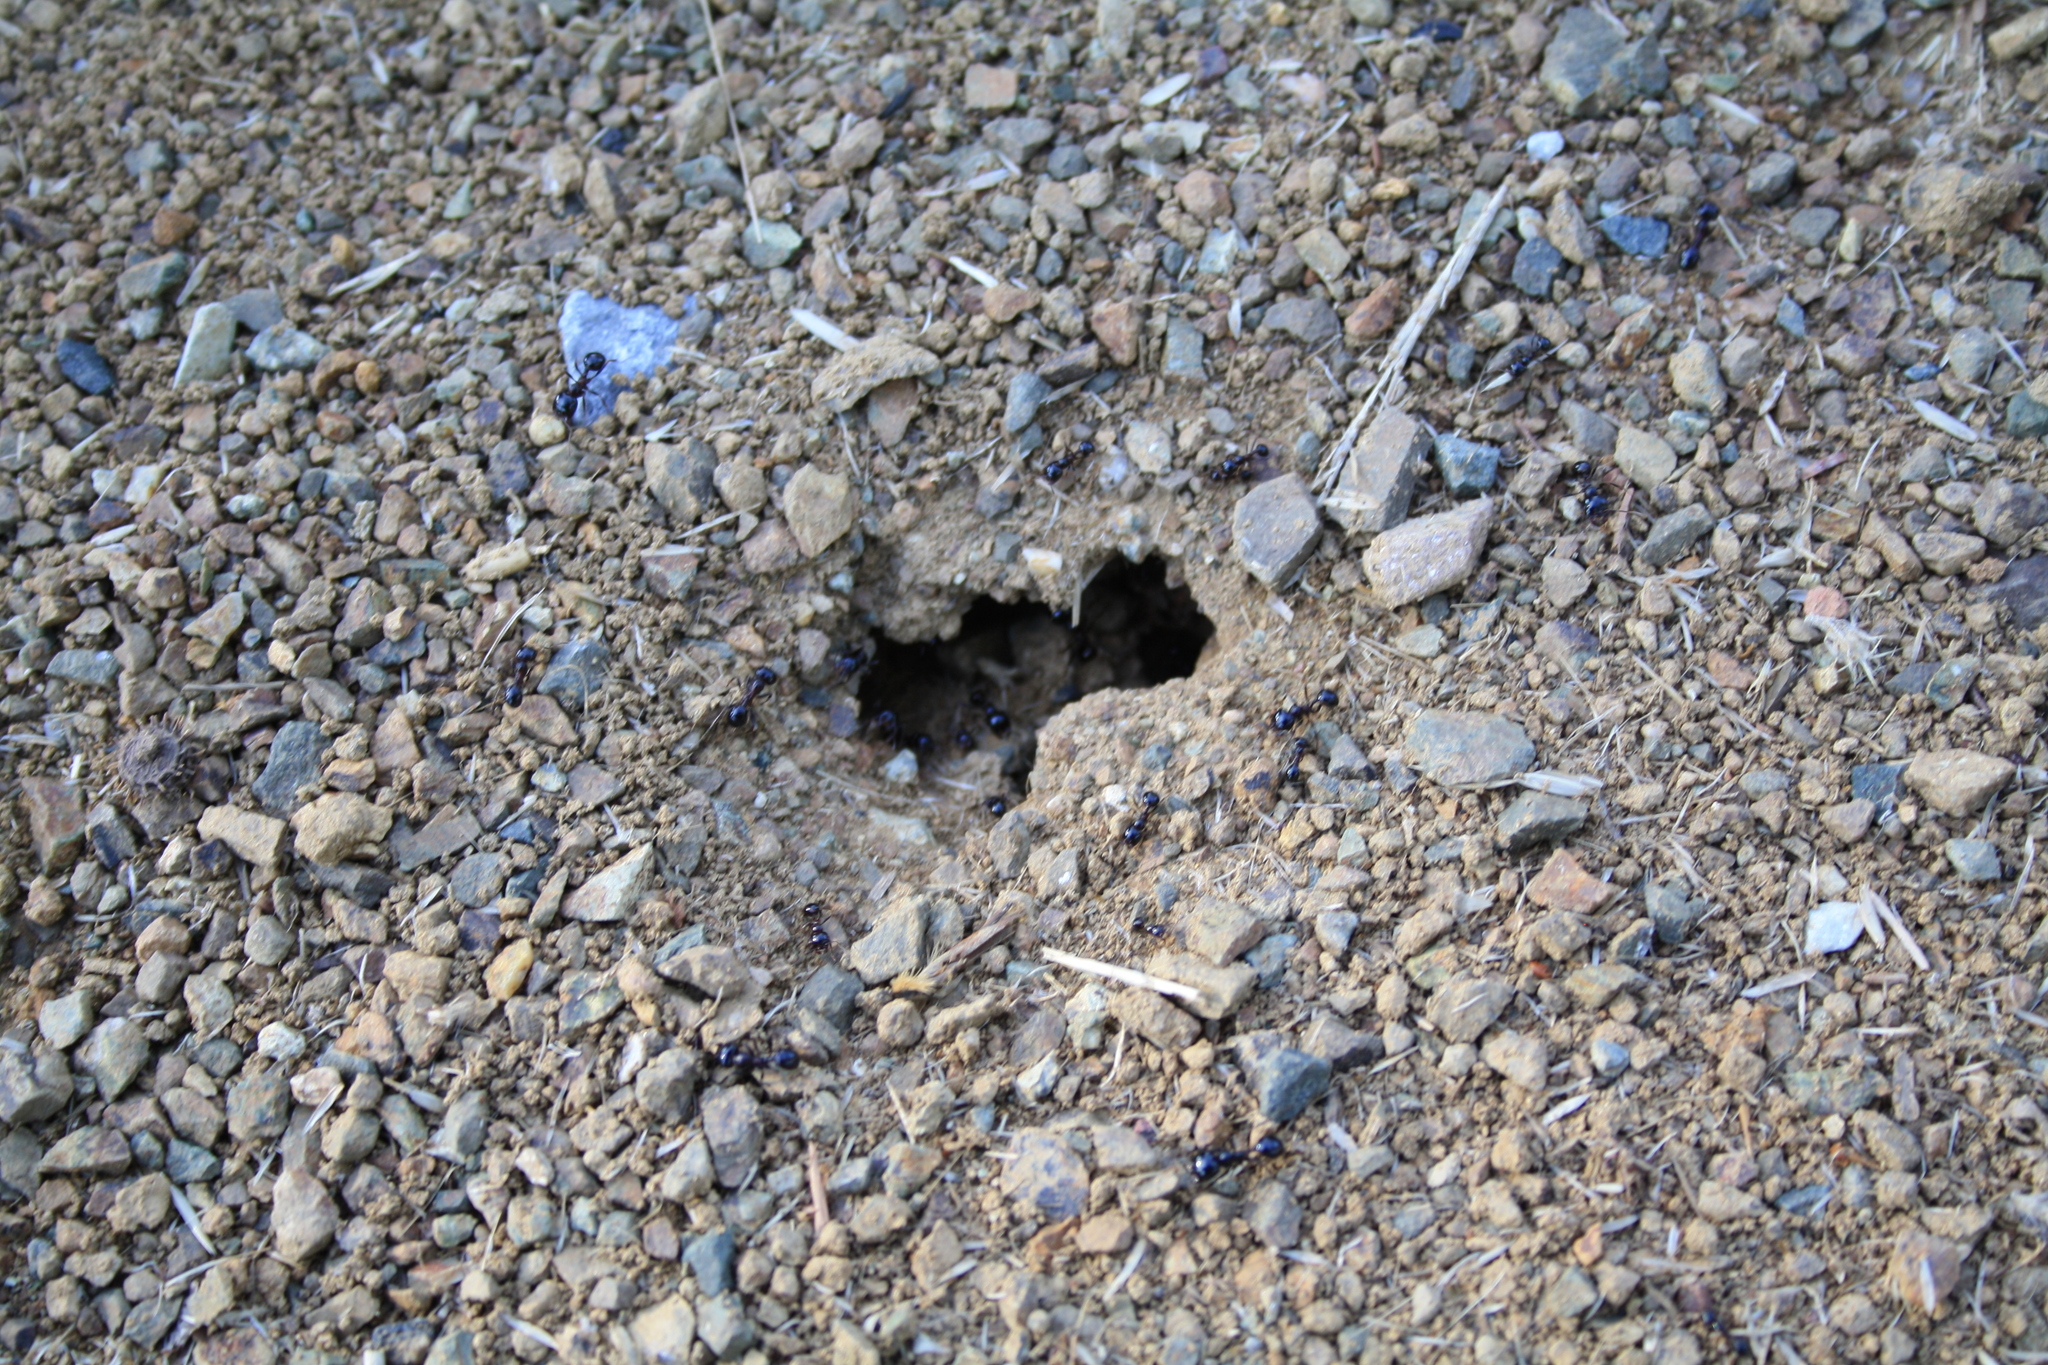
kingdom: Animalia
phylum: Arthropoda
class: Insecta
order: Hymenoptera
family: Formicidae
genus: Messor
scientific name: Messor wasmanni
